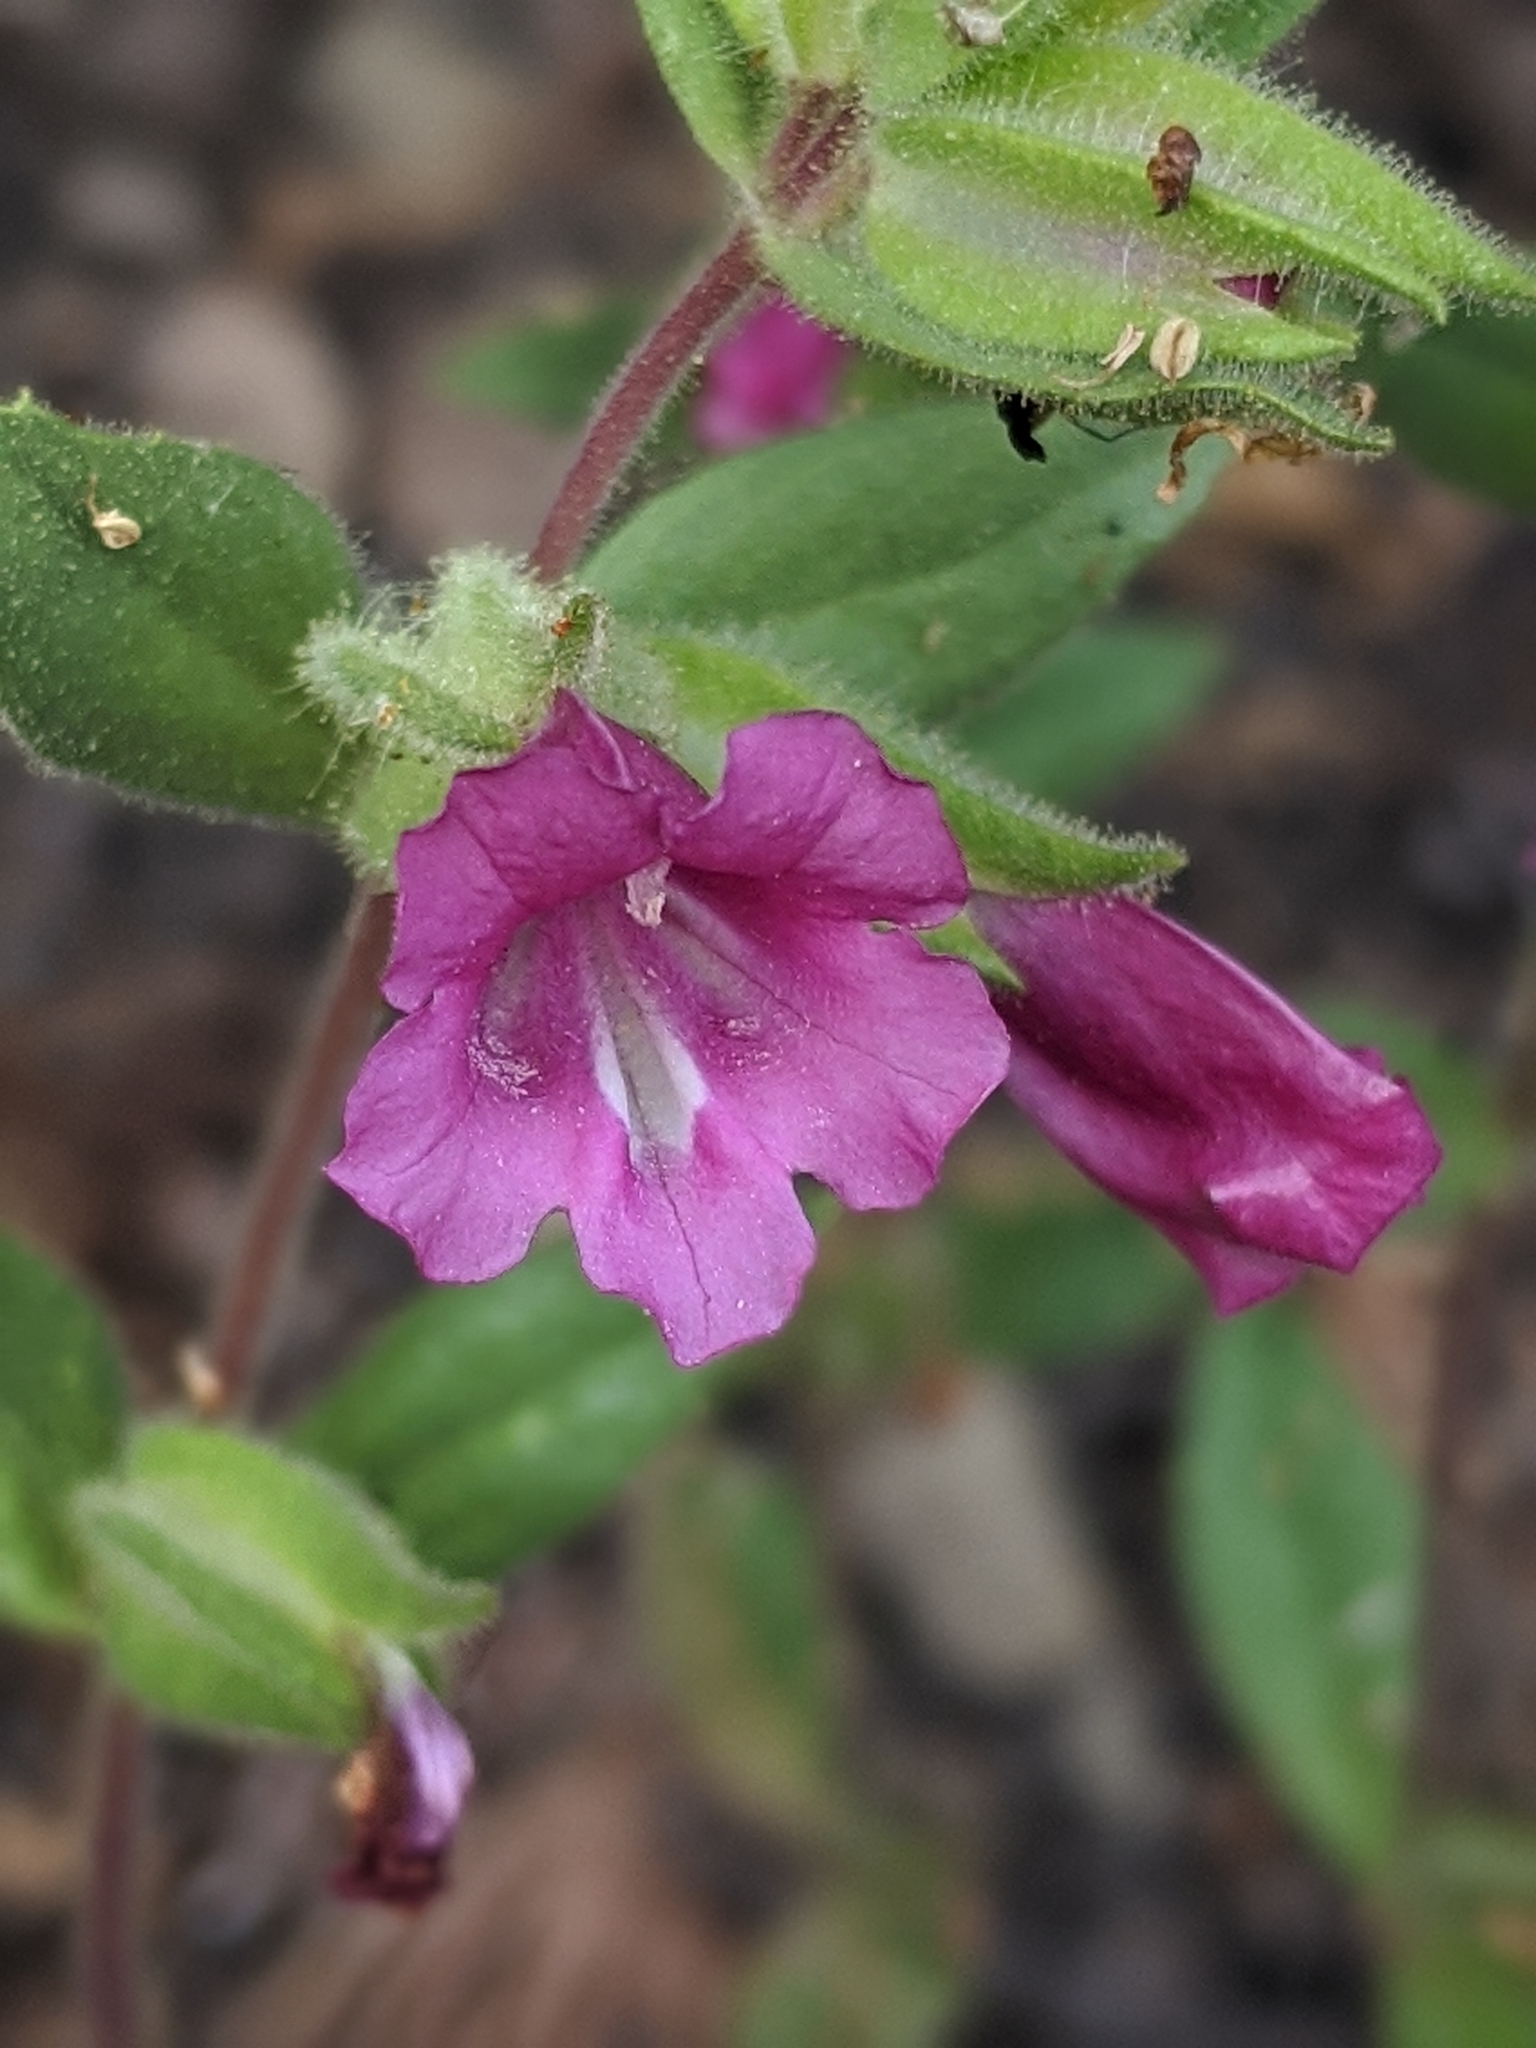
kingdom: Plantae
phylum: Tracheophyta
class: Magnoliopsida
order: Lamiales
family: Phrymaceae
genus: Diplacus
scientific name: Diplacus bolanderi
